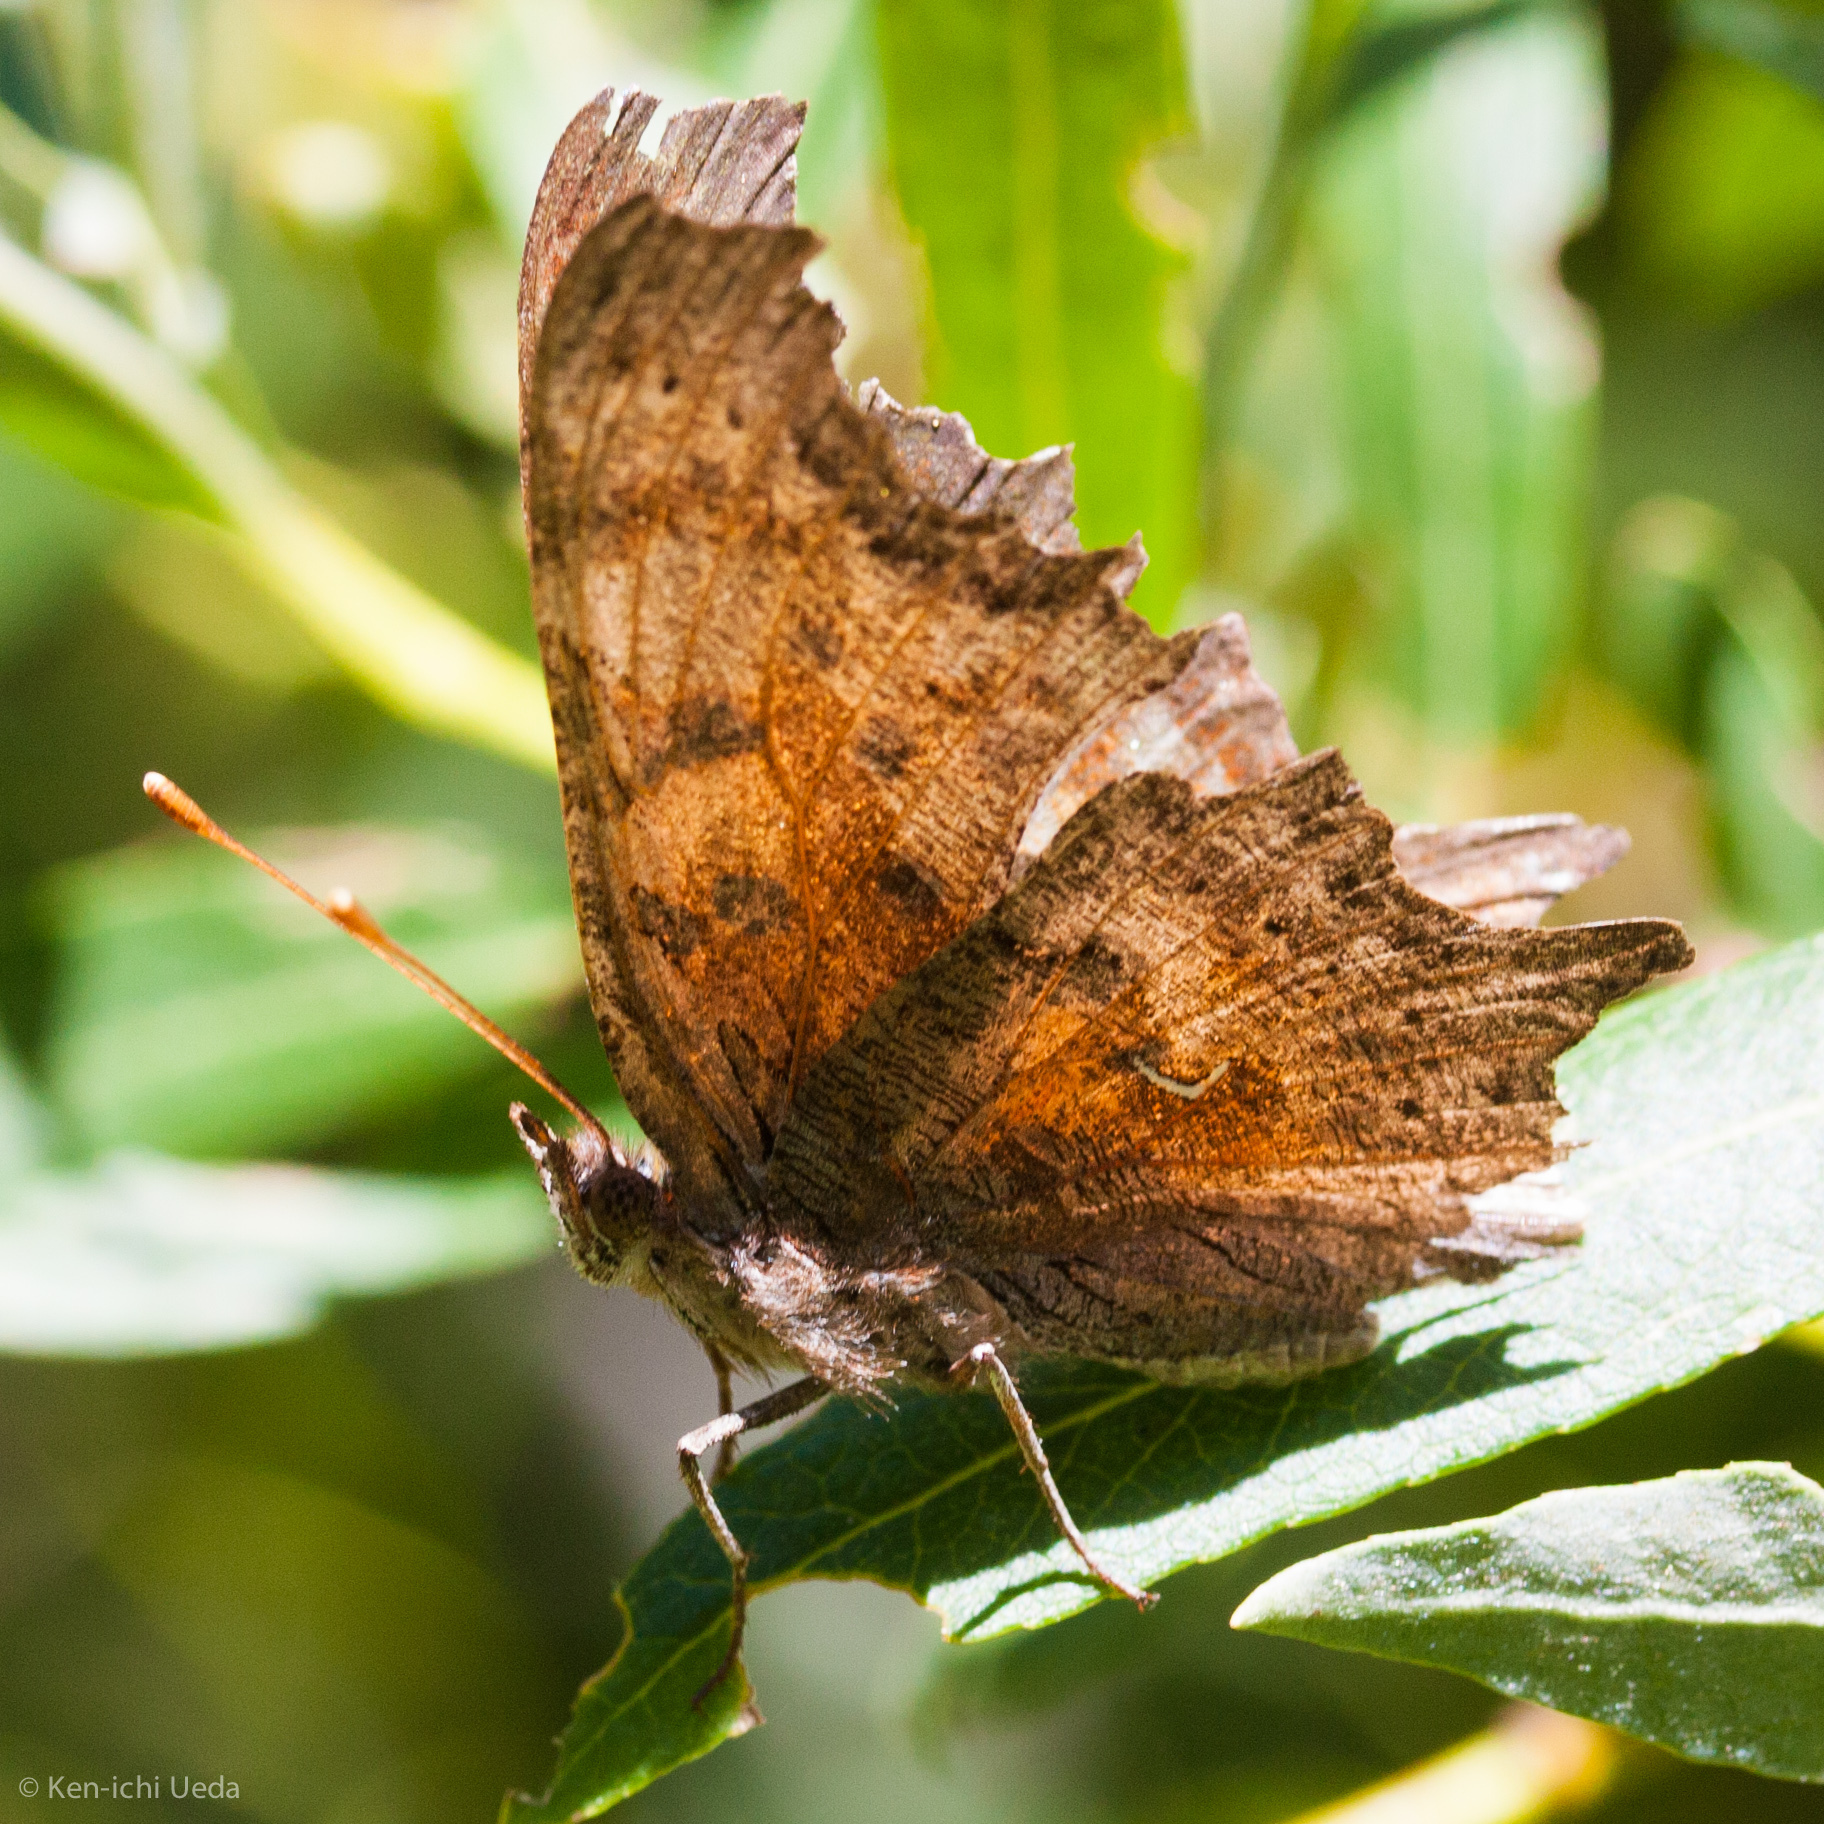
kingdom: Animalia
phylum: Arthropoda
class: Insecta
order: Lepidoptera
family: Nymphalidae
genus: Polygonia
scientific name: Polygonia gracilis
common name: Hoary comma
